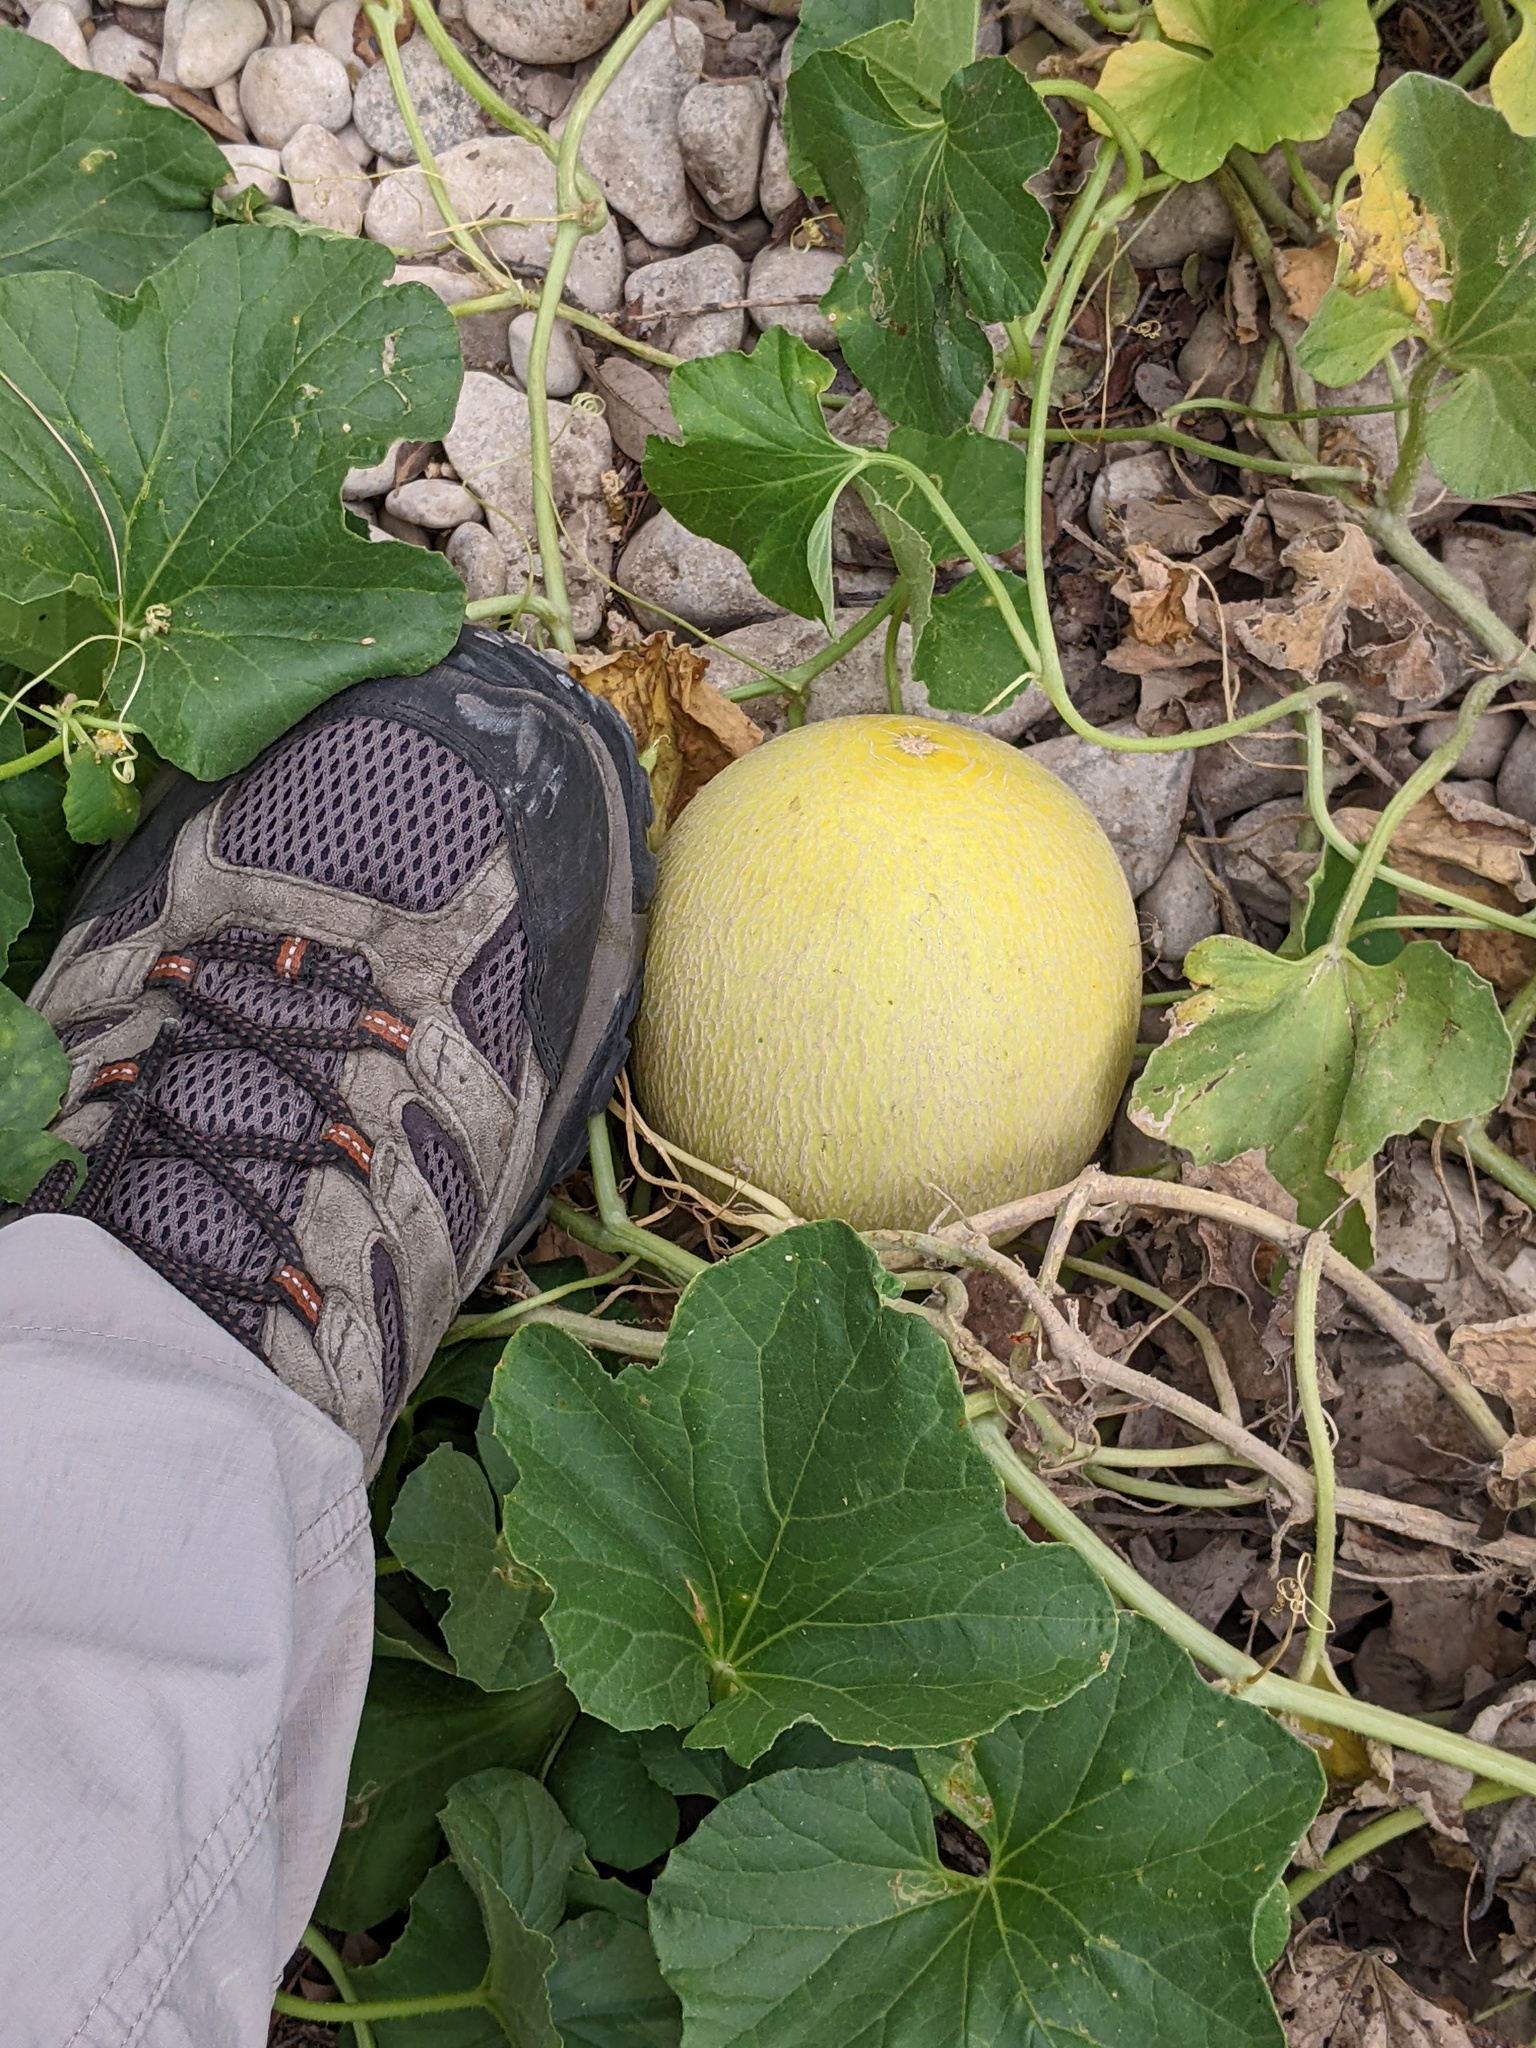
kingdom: Plantae
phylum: Tracheophyta
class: Magnoliopsida
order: Cucurbitales
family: Cucurbitaceae
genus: Cucumis
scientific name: Cucumis melo
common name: Melon
